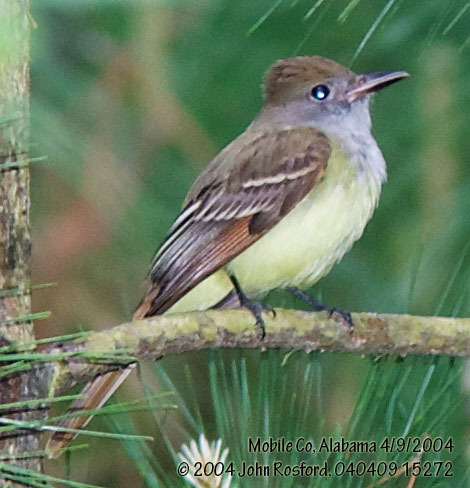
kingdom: Animalia
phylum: Chordata
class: Aves
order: Passeriformes
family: Tyrannidae
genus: Myiarchus
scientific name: Myiarchus crinitus
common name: Great crested flycatcher
